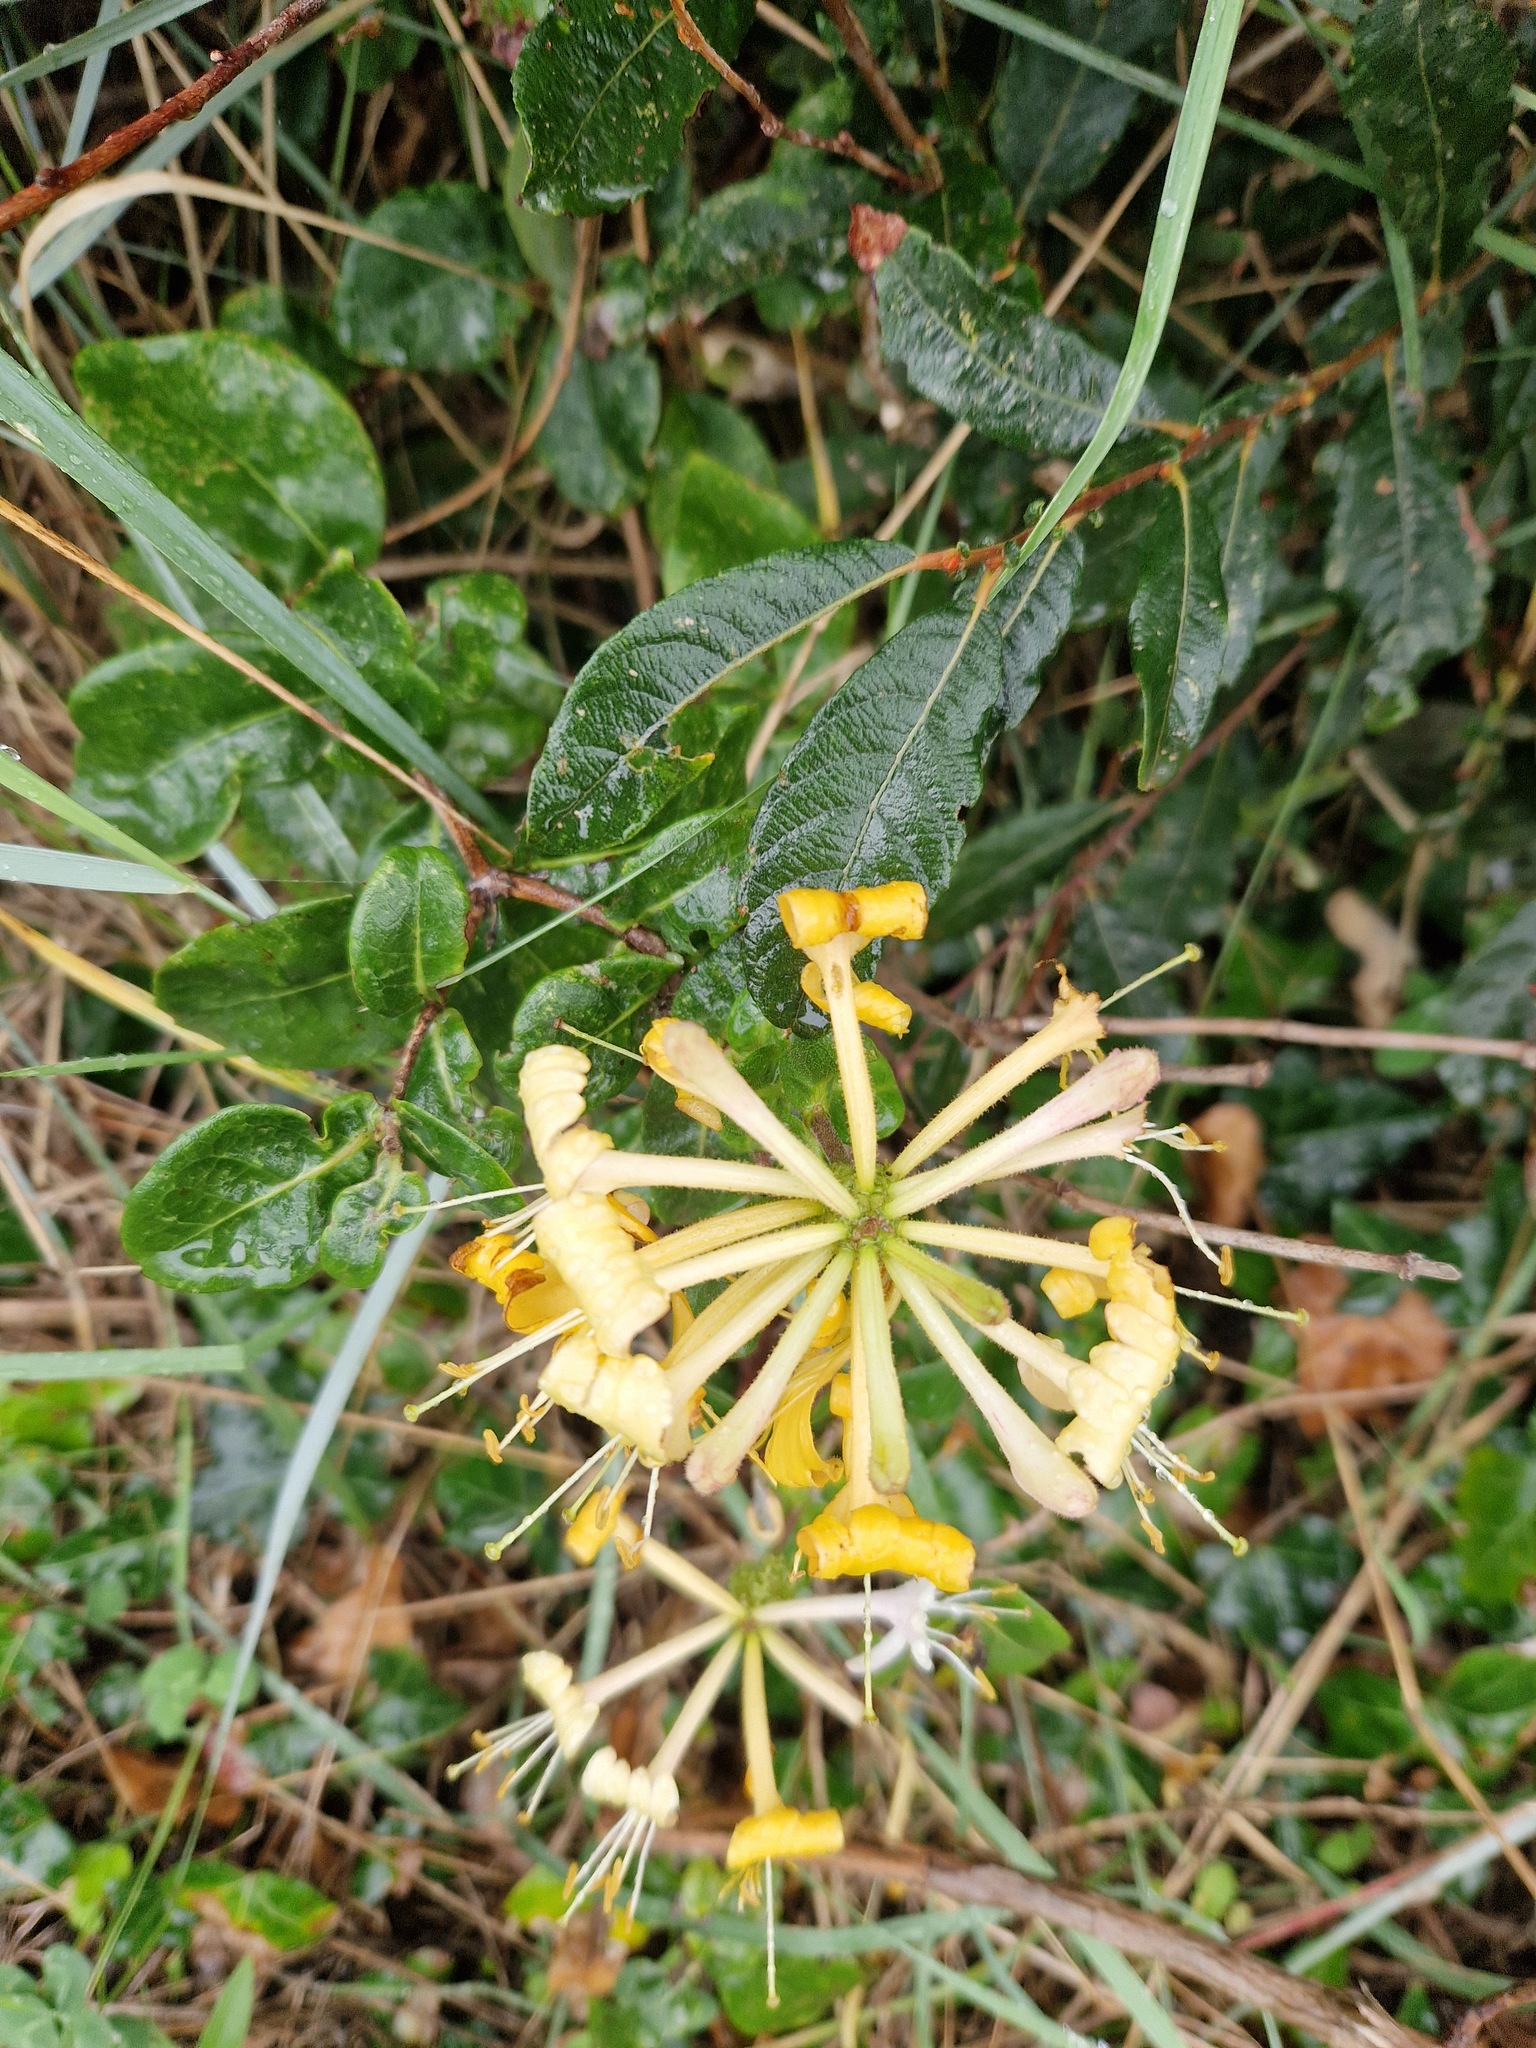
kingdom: Plantae
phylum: Tracheophyta
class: Magnoliopsida
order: Dipsacales
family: Caprifoliaceae
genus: Lonicera
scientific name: Lonicera periclymenum
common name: European honeysuckle
